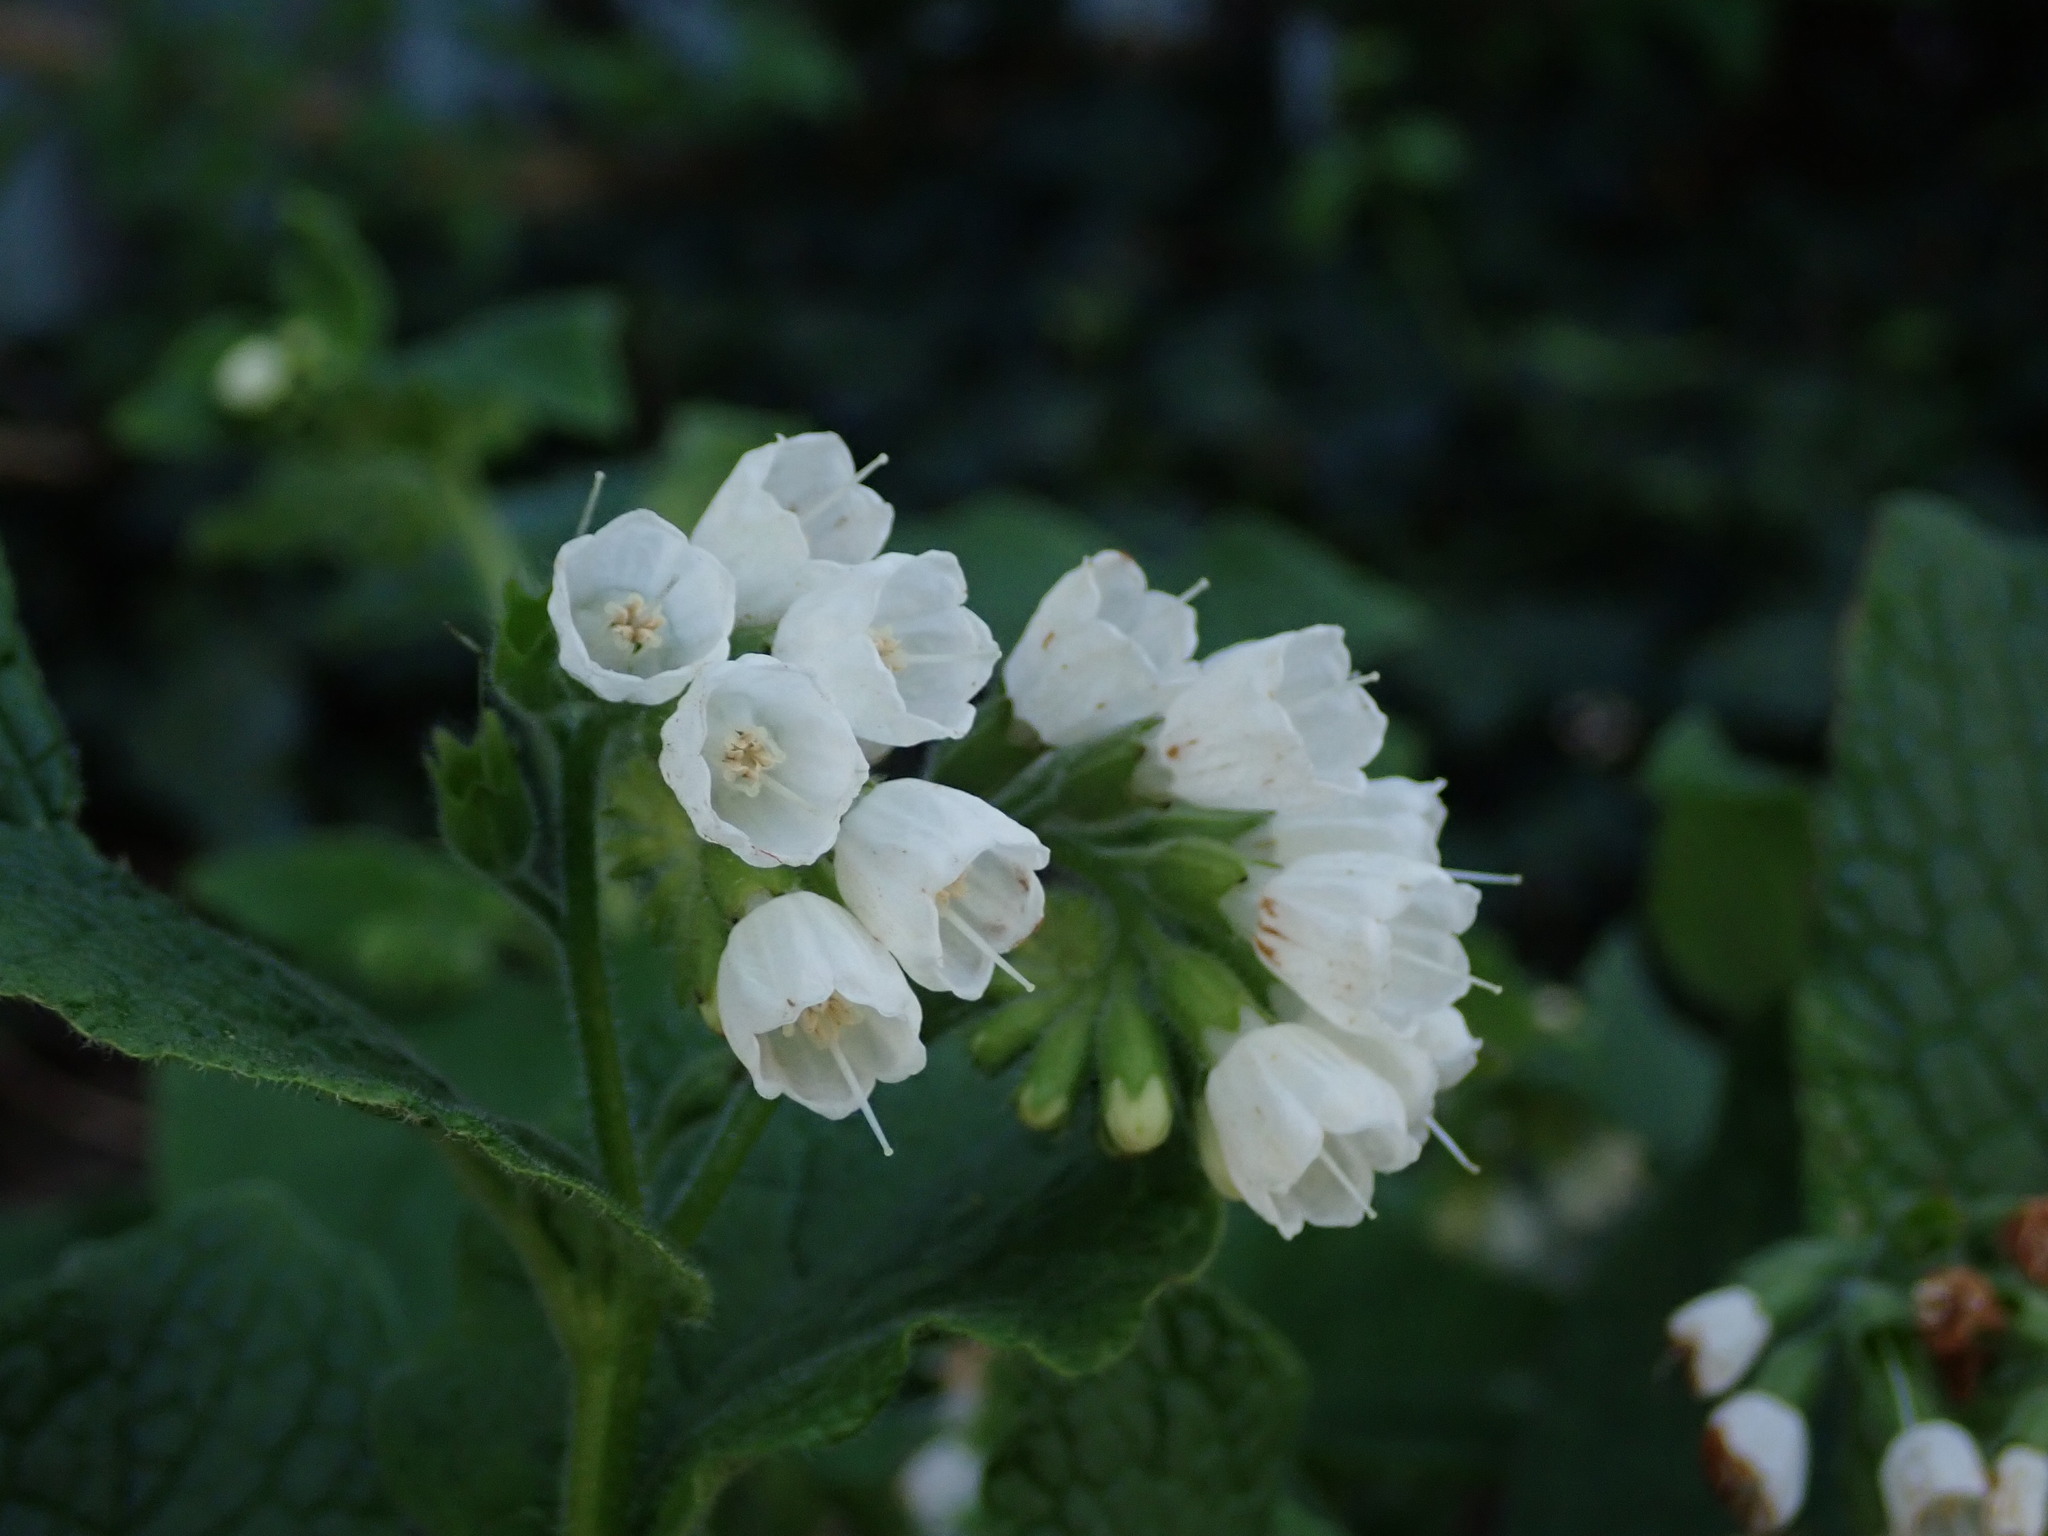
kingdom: Plantae
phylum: Tracheophyta
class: Magnoliopsida
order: Boraginales
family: Boraginaceae
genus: Symphytum
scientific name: Symphytum orientale
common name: White comfrey
